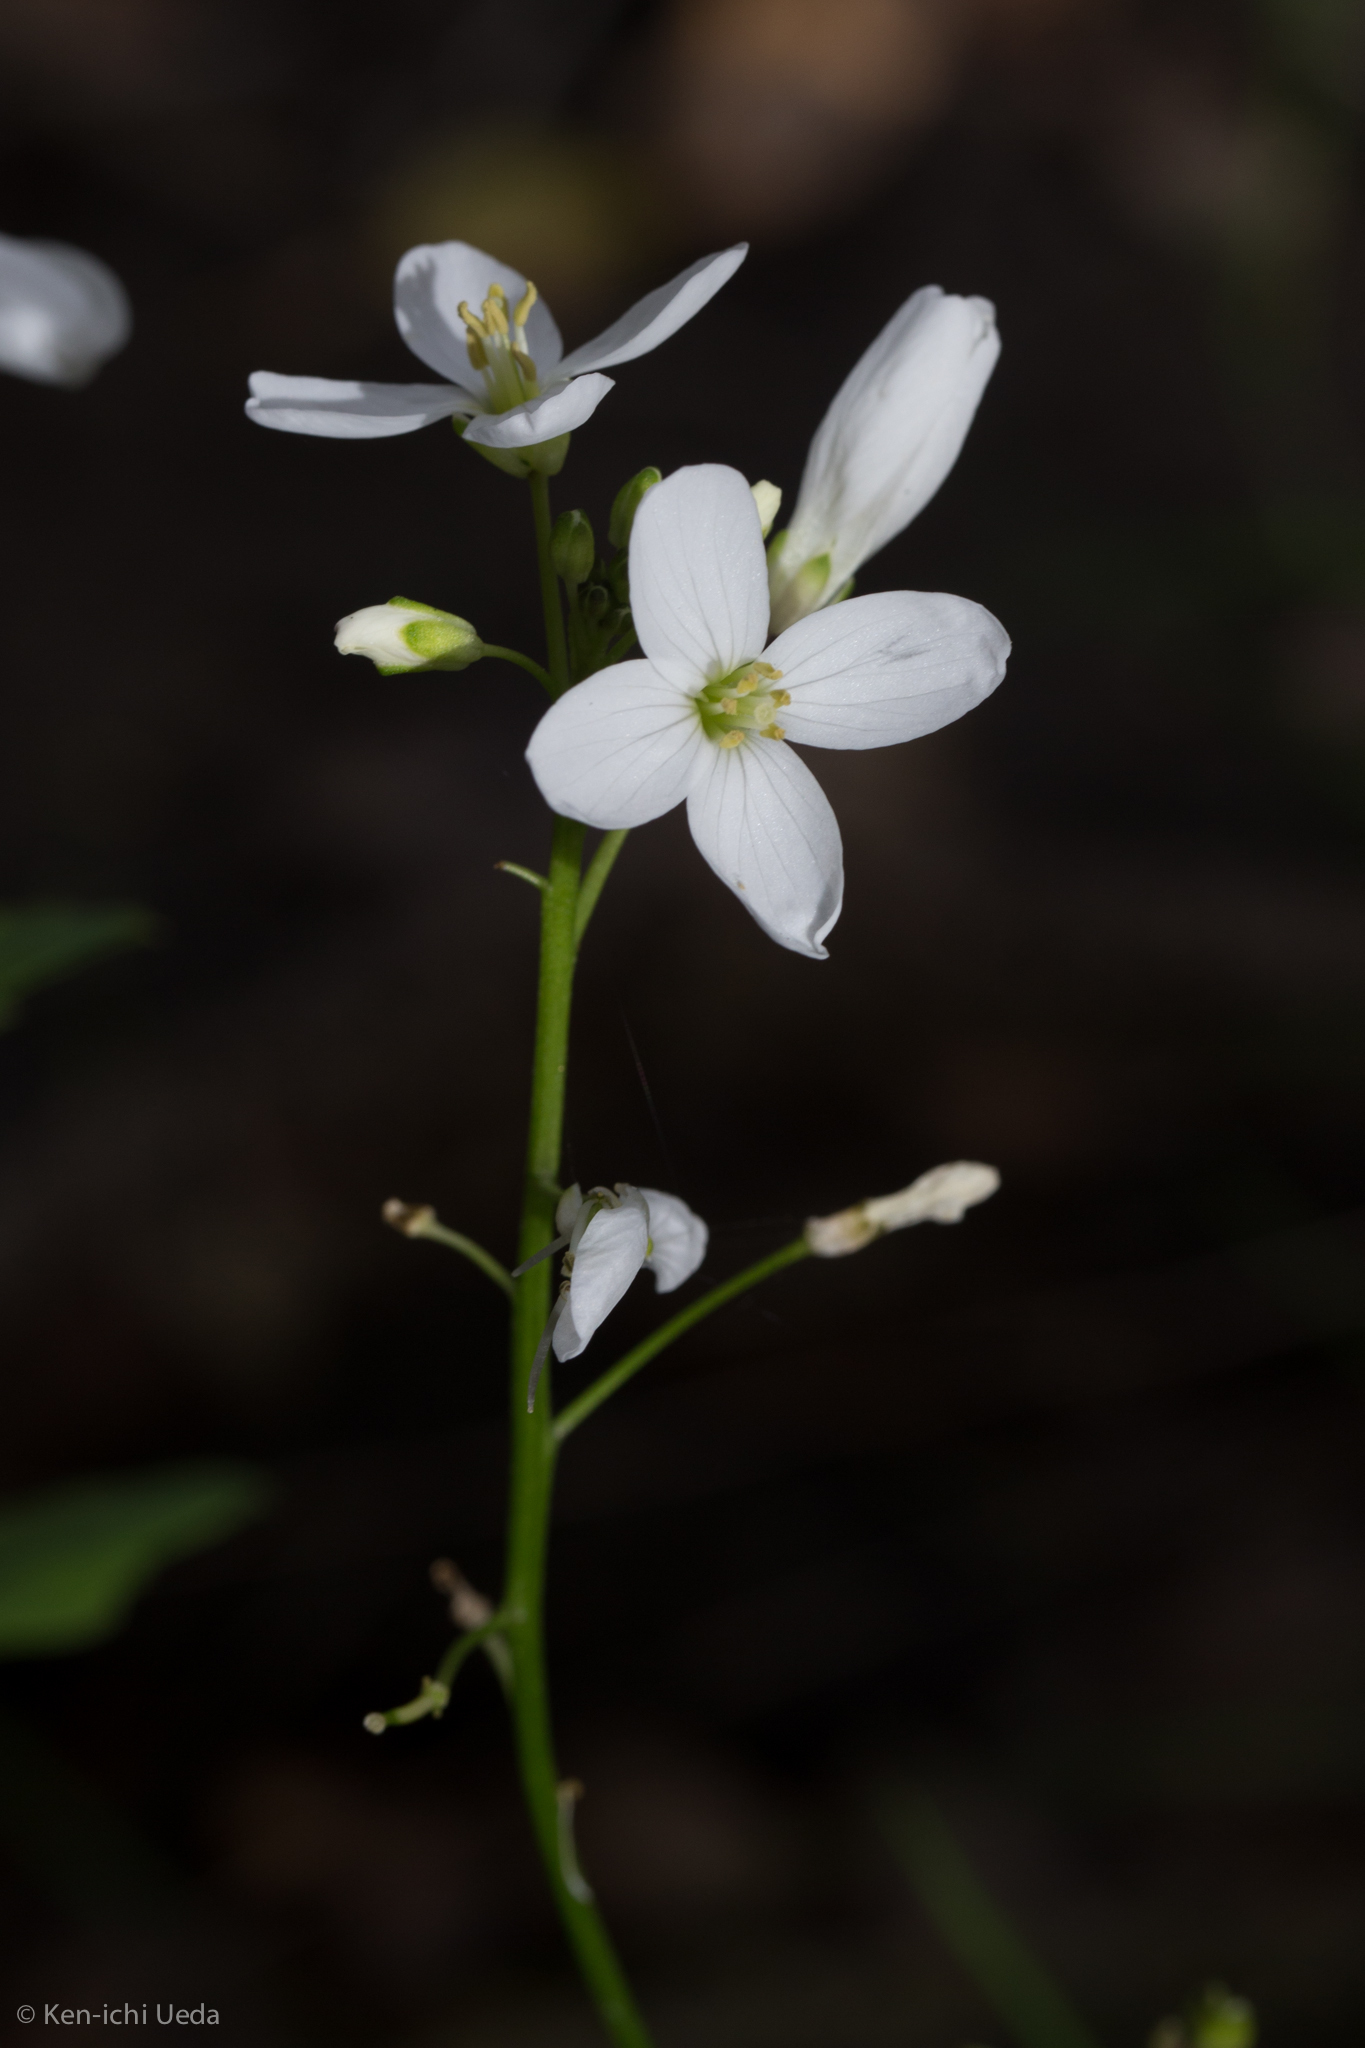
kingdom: Plantae
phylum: Tracheophyta
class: Magnoliopsida
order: Brassicales
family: Brassicaceae
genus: Cardamine
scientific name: Cardamine californica
